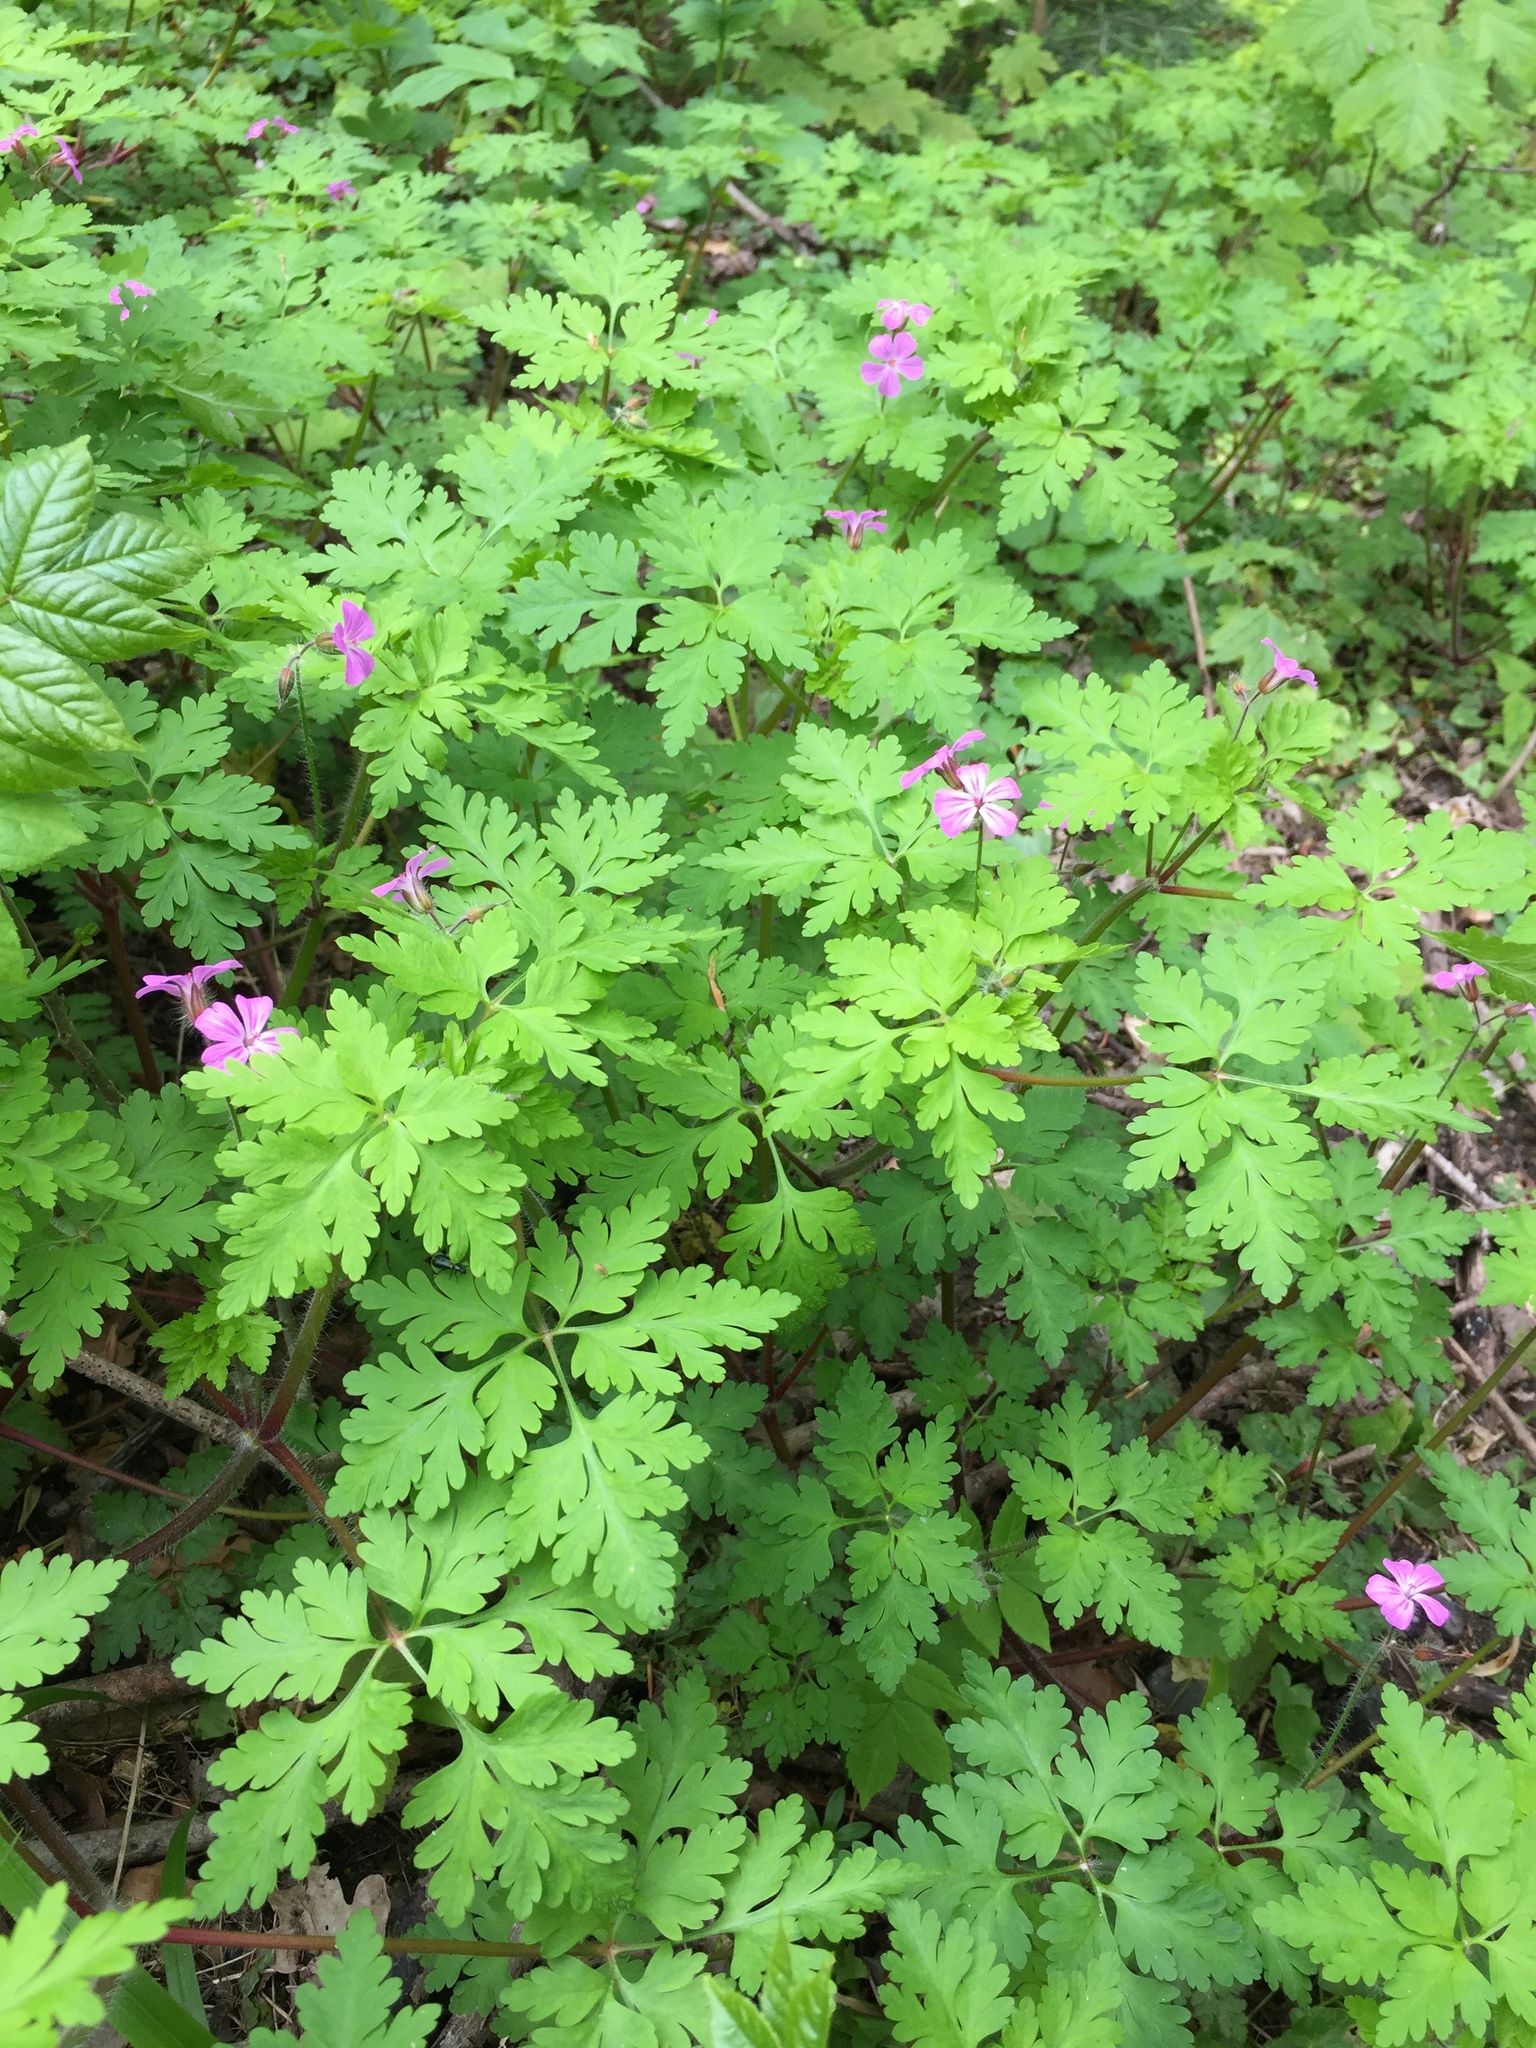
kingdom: Plantae
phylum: Tracheophyta
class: Magnoliopsida
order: Geraniales
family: Geraniaceae
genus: Geranium
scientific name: Geranium robertianum
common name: Herb-robert
